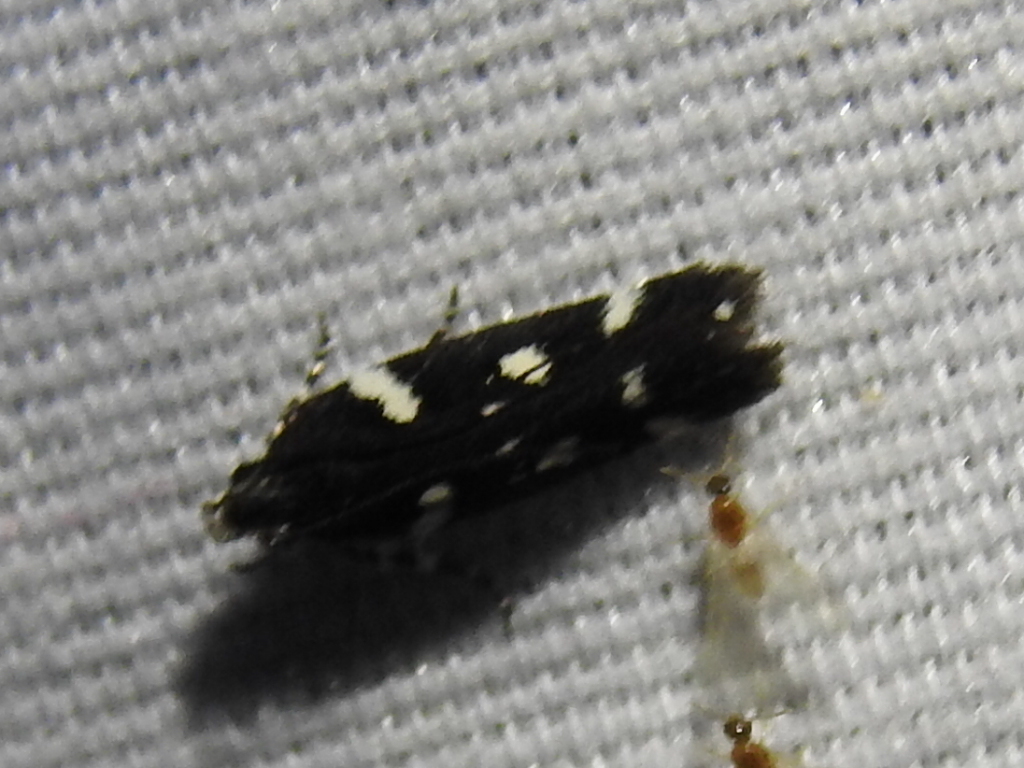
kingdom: Animalia
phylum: Arthropoda
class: Insecta
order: Lepidoptera
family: Gelechiidae
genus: Aroga
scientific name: Aroga compositella
